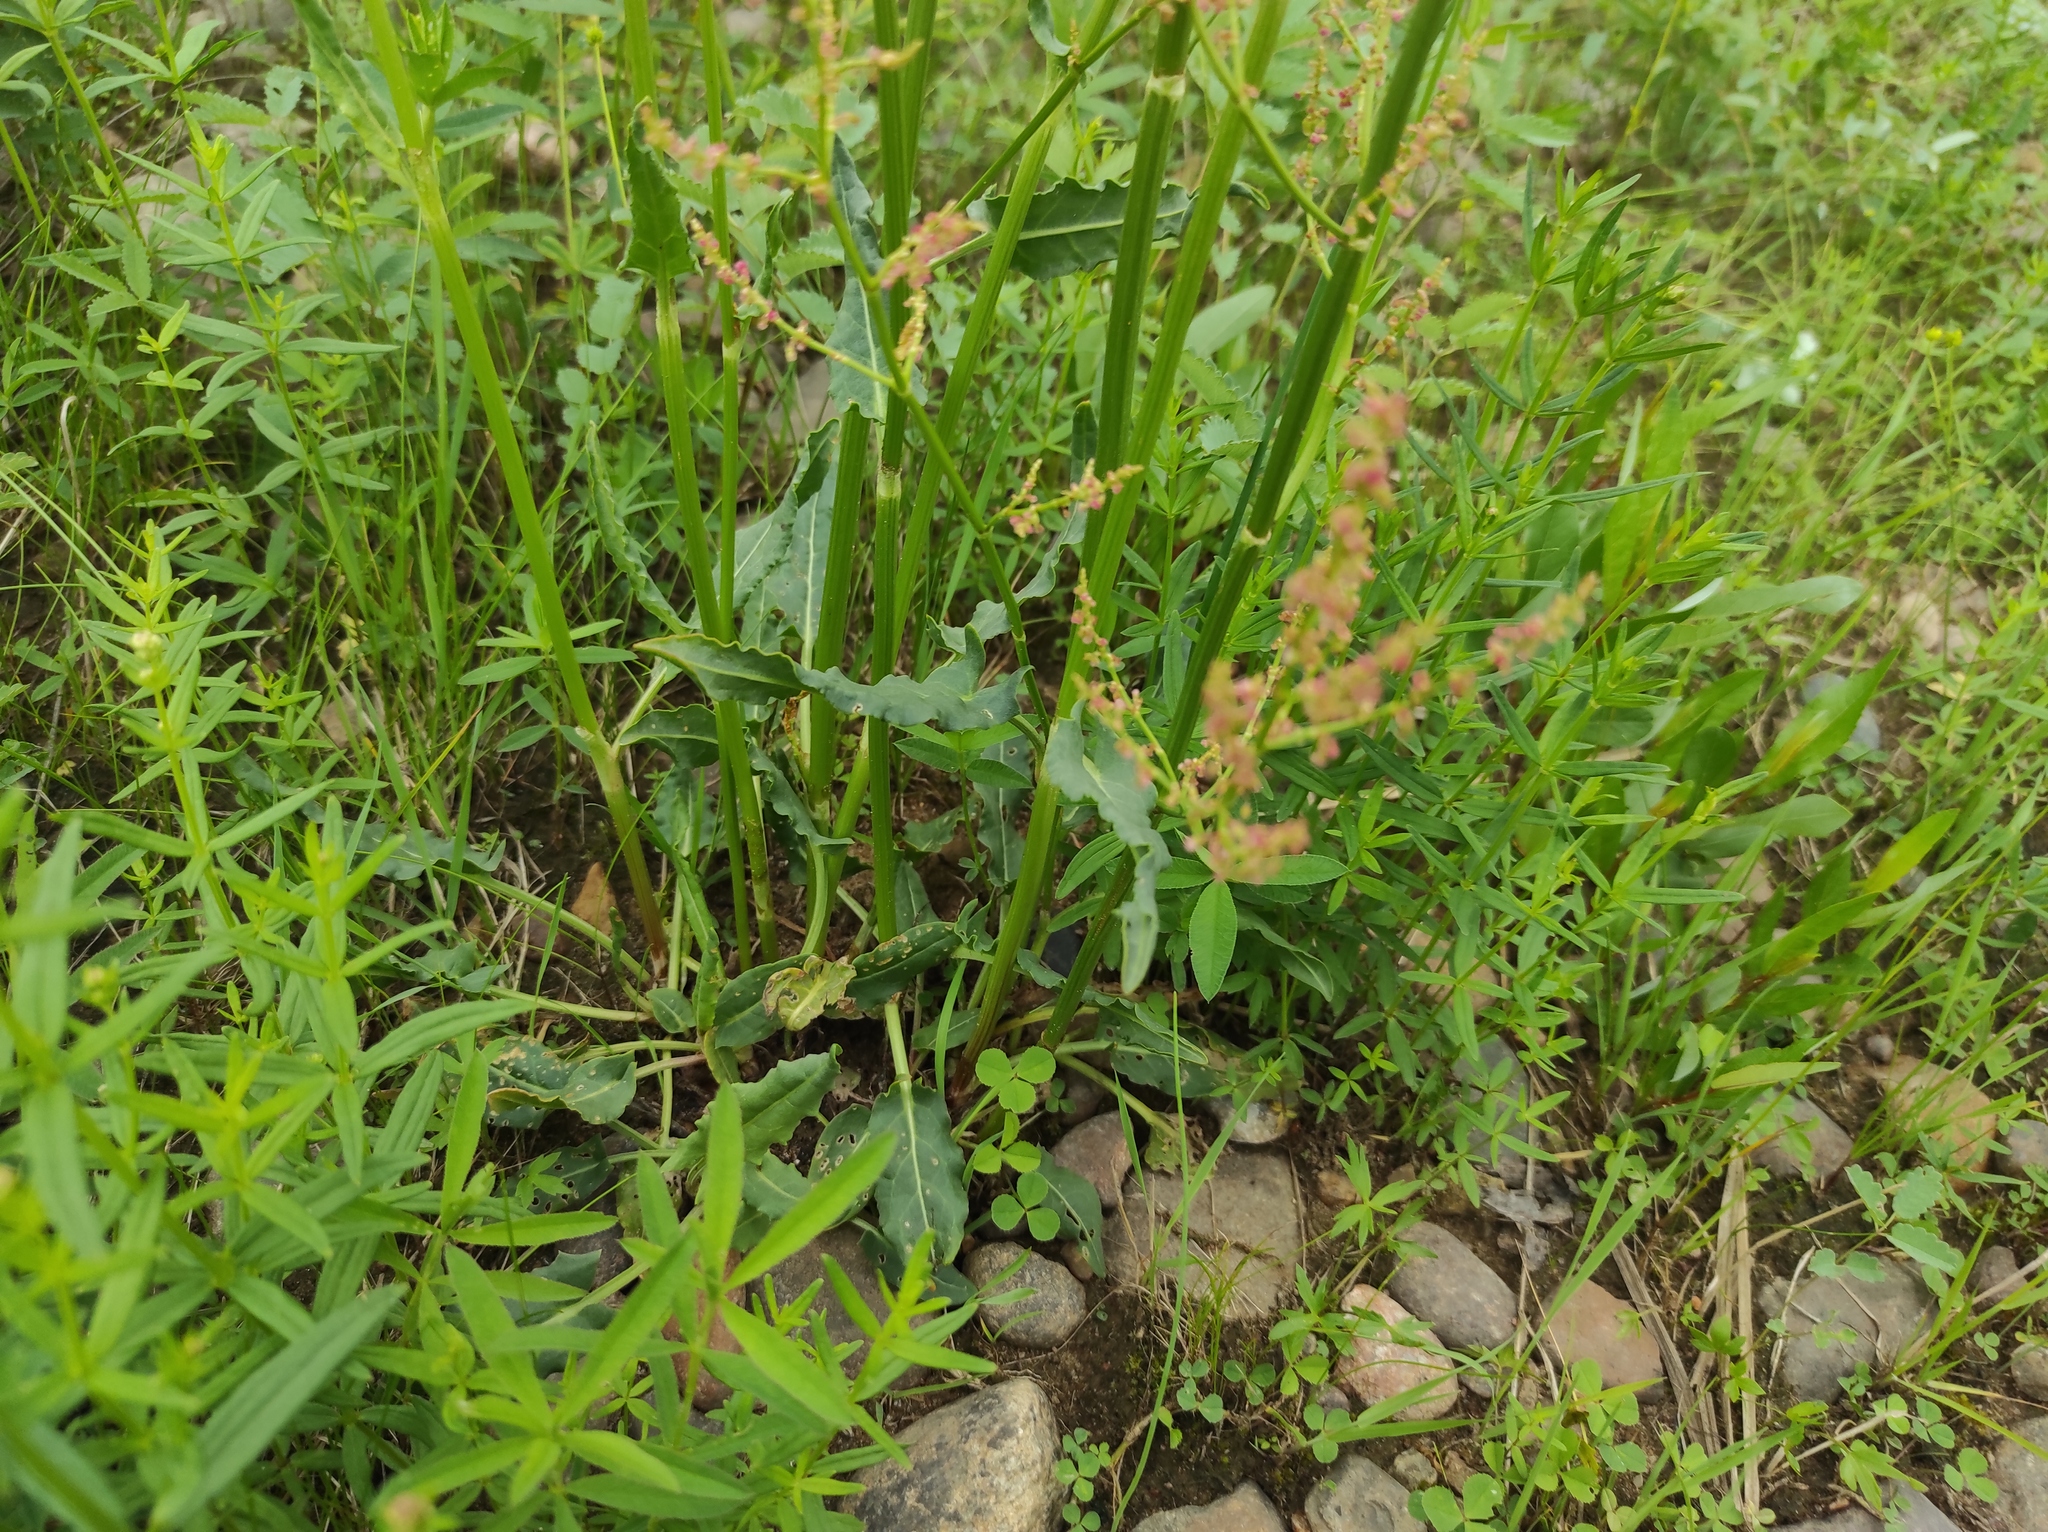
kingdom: Plantae
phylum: Tracheophyta
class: Magnoliopsida
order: Caryophyllales
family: Polygonaceae
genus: Rumex
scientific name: Rumex thyrsiflorus
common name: Garden sorrel
